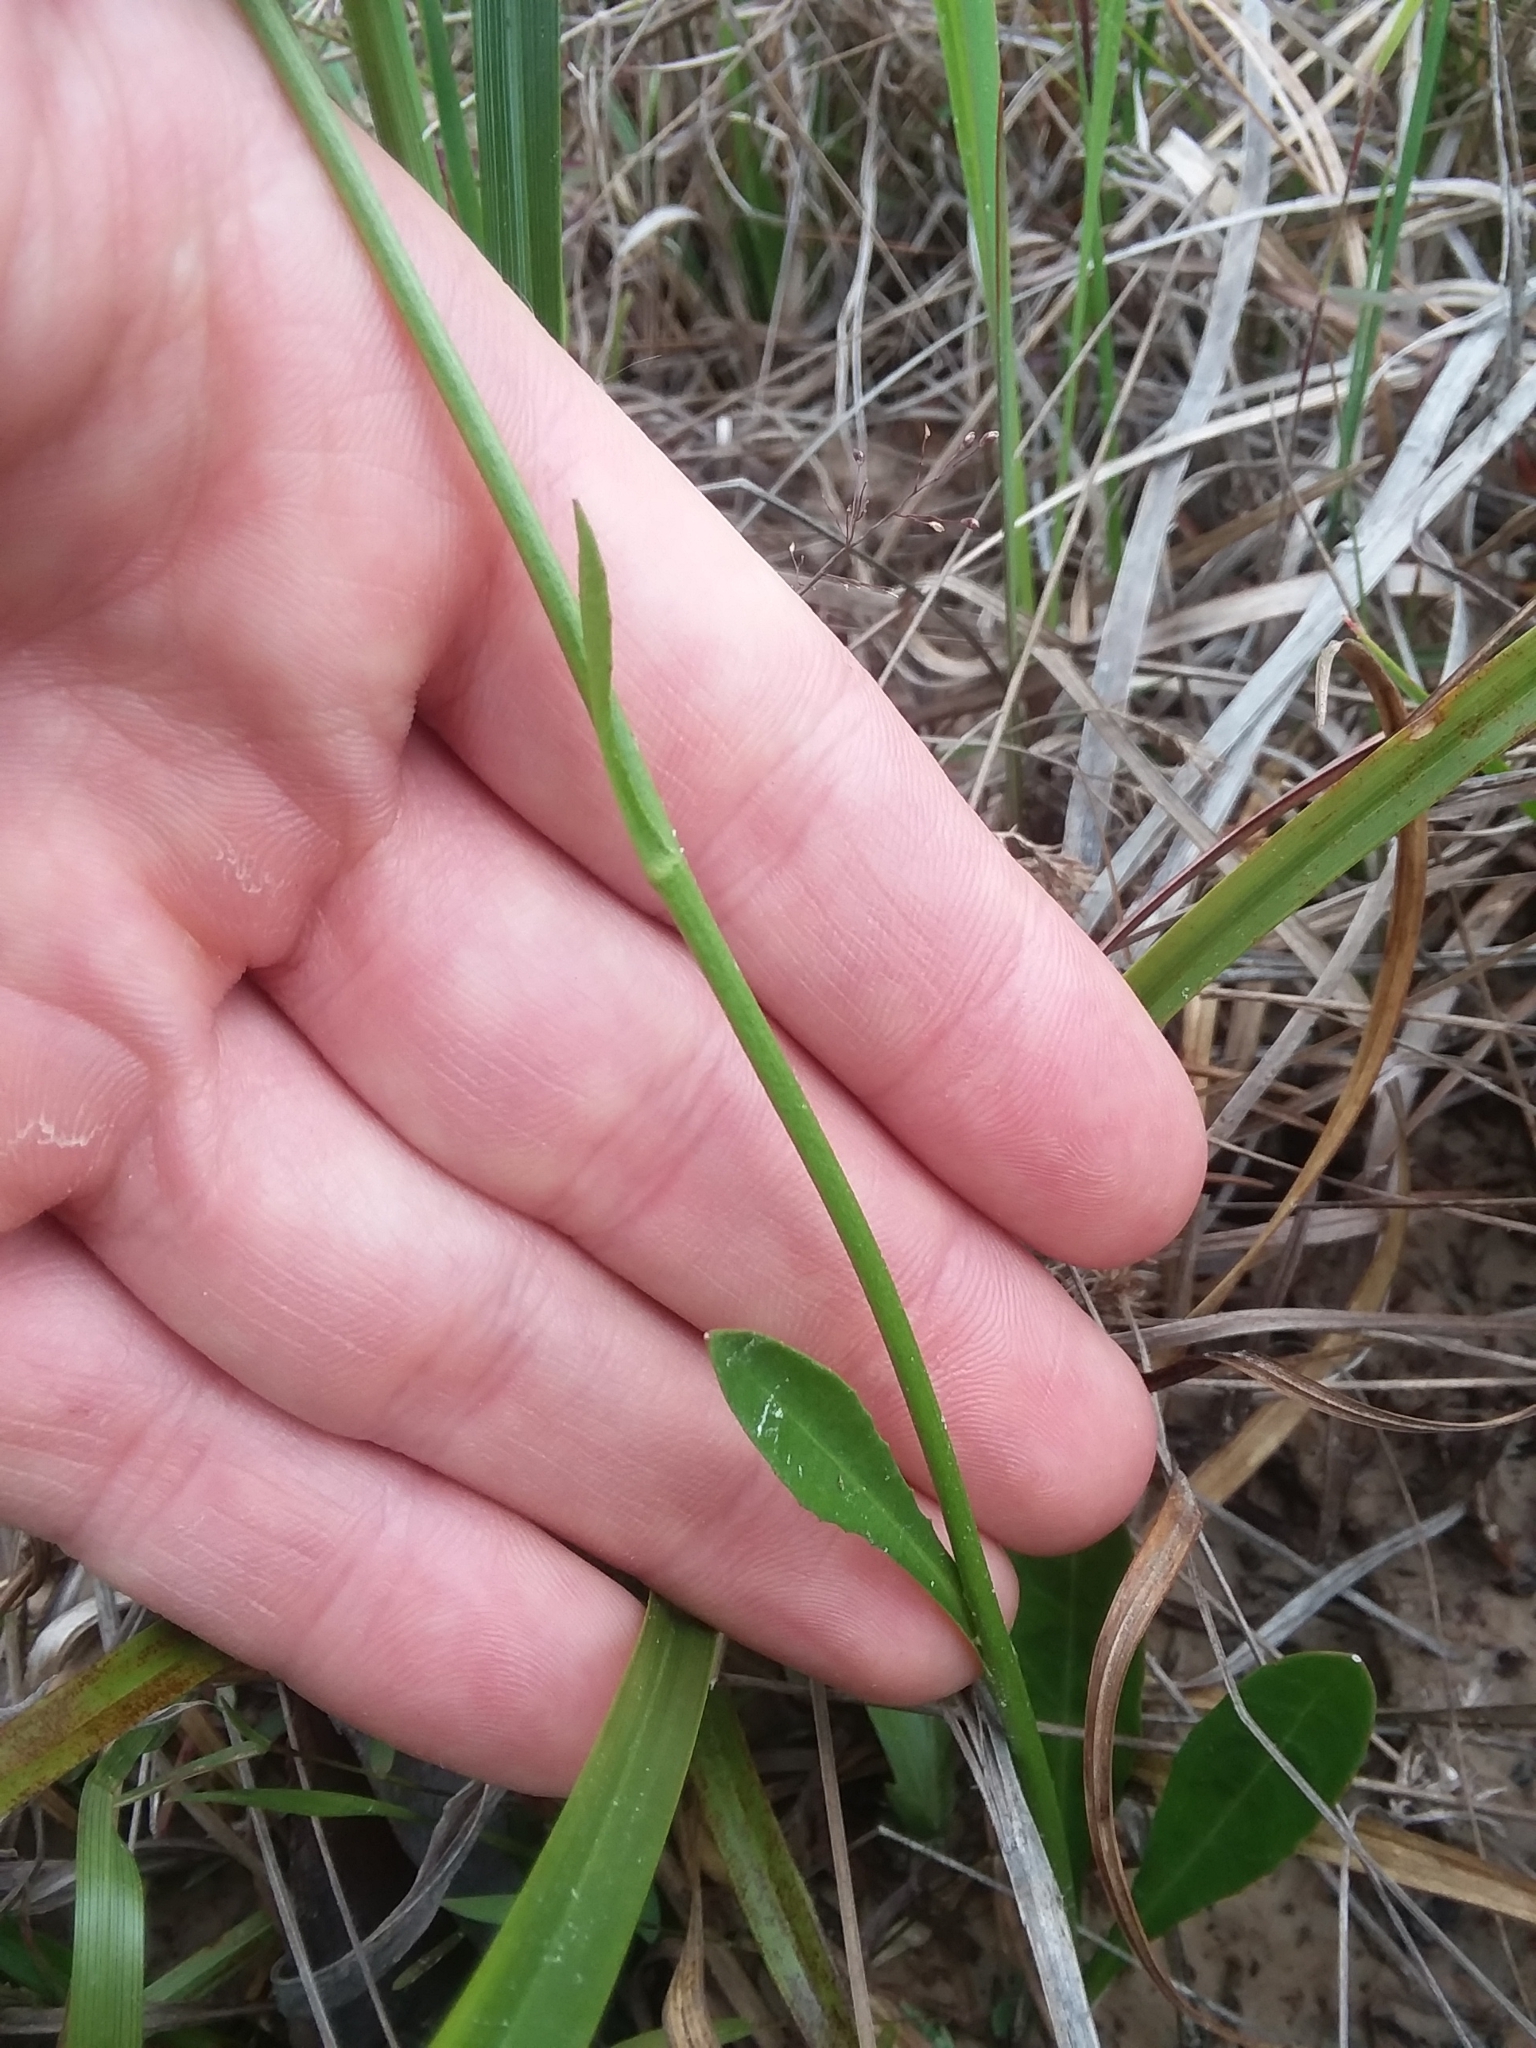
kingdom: Plantae
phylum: Tracheophyta
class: Magnoliopsida
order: Asterales
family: Asteraceae
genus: Erigeron
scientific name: Erigeron vernus
